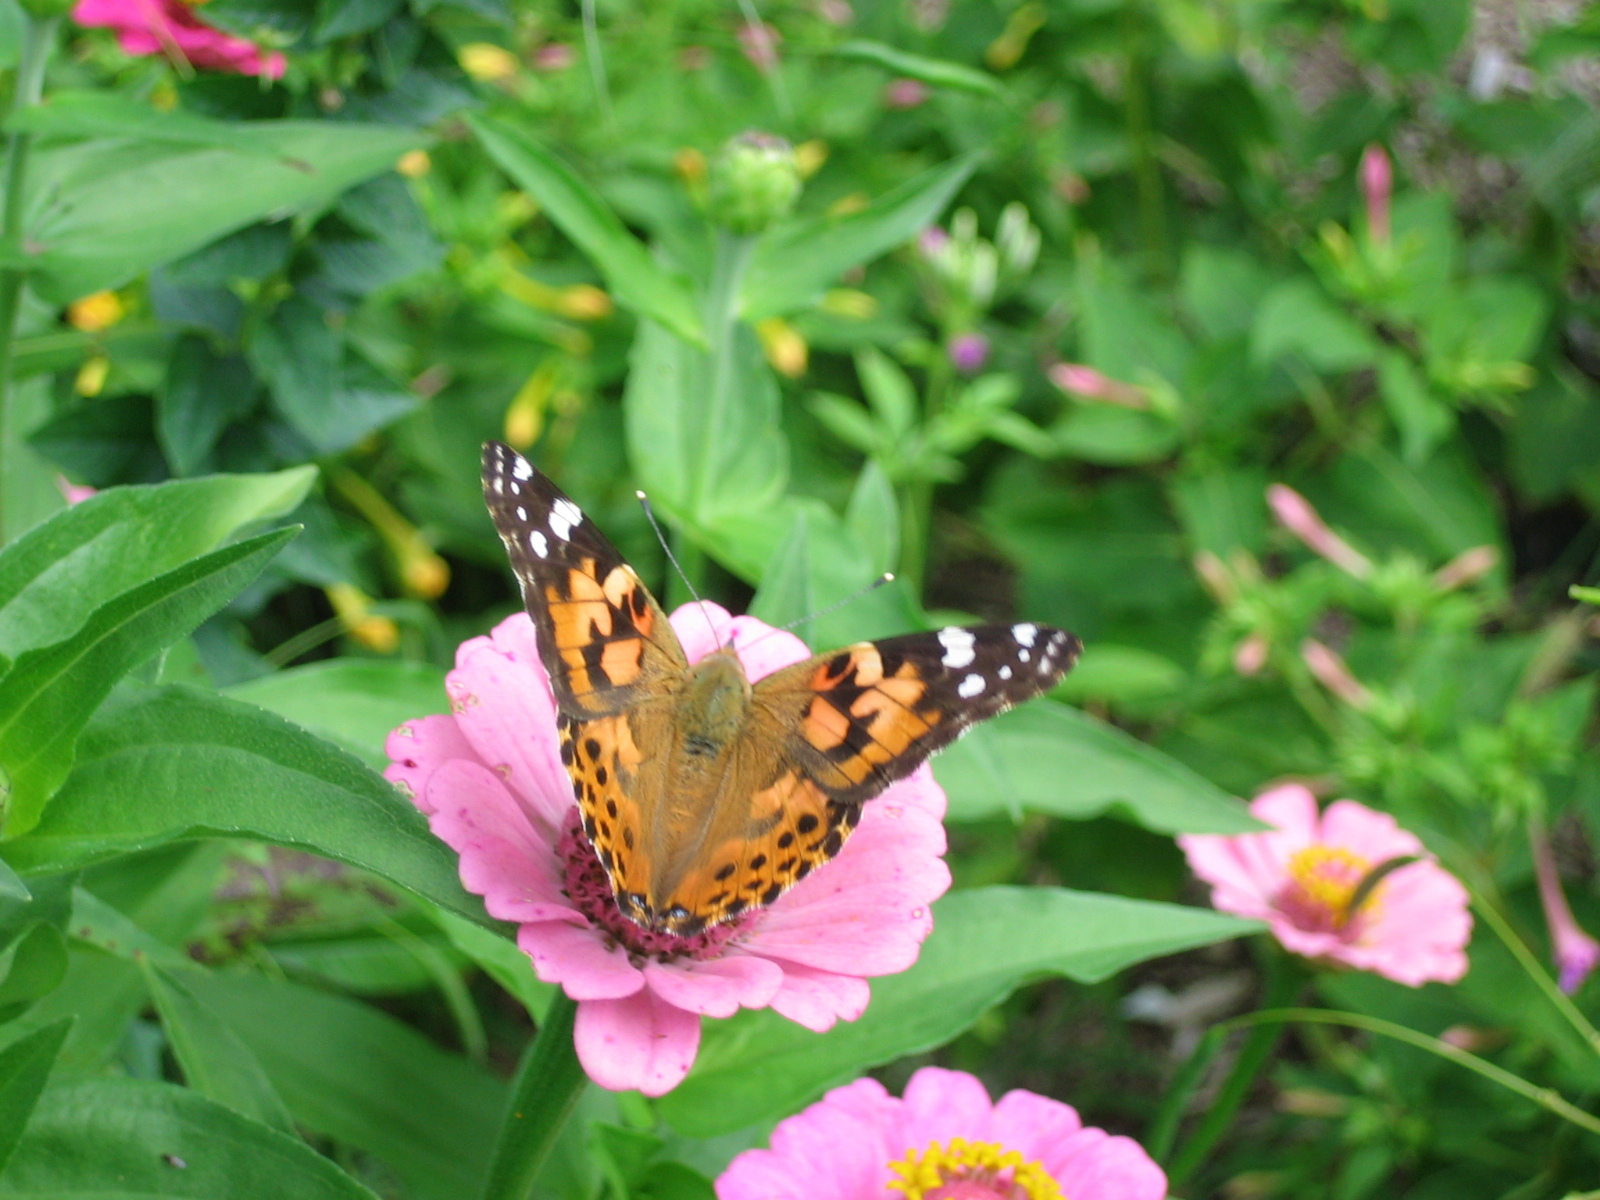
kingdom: Animalia
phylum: Arthropoda
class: Insecta
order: Lepidoptera
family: Nymphalidae
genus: Vanessa
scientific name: Vanessa cardui
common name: Painted lady
